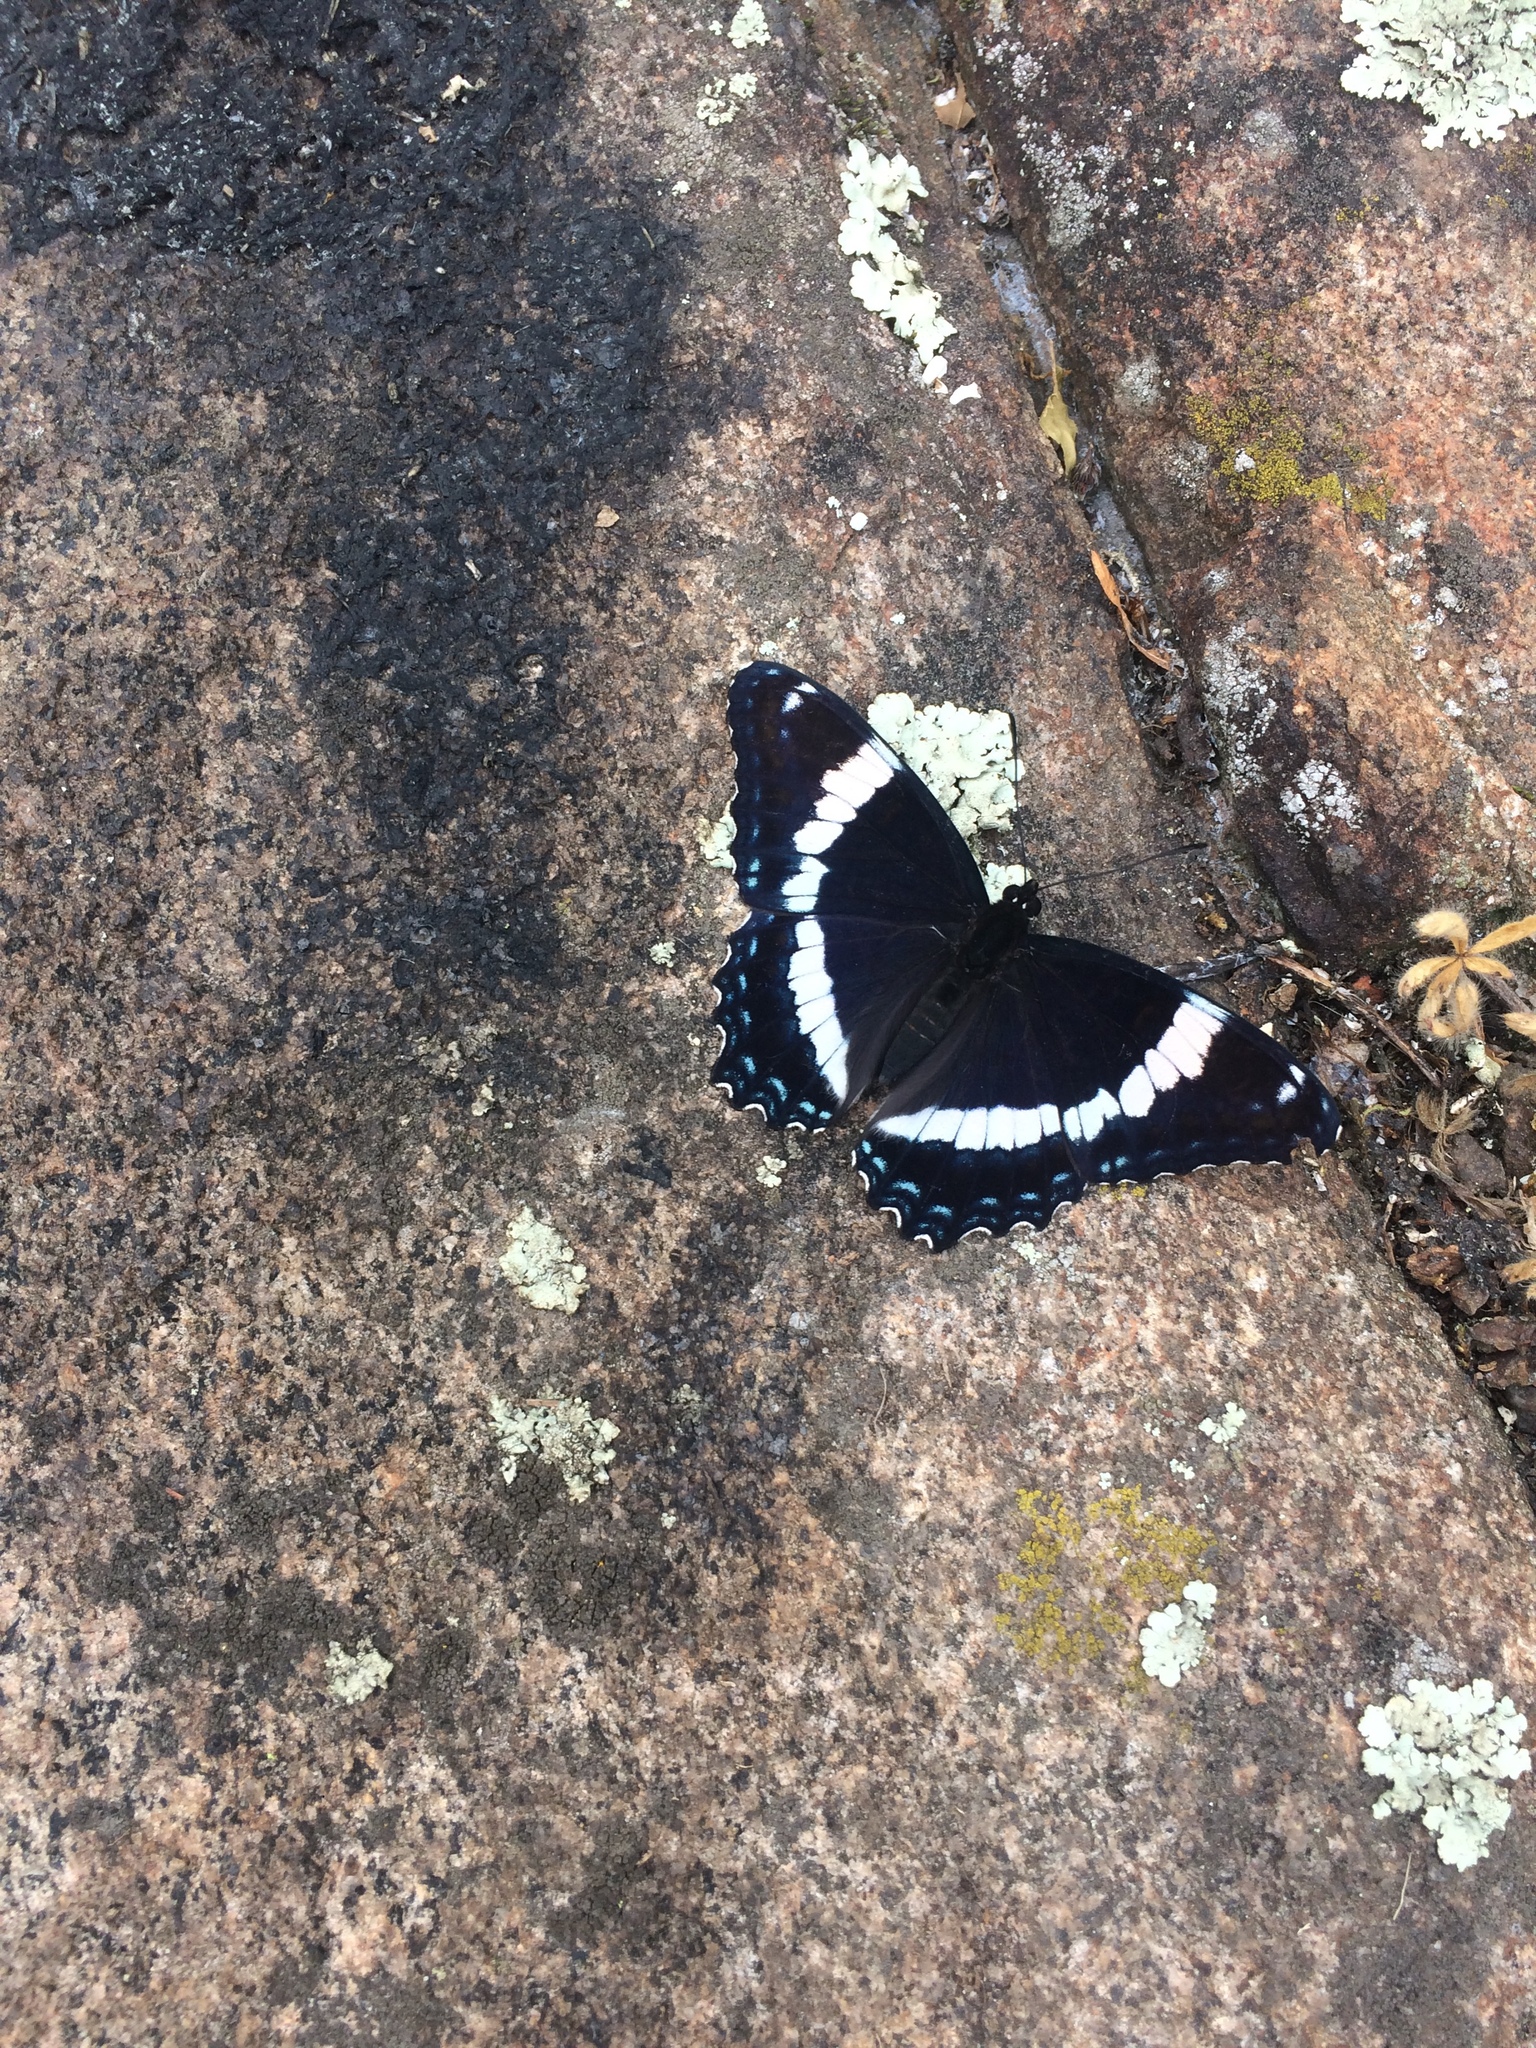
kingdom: Animalia
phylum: Arthropoda
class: Insecta
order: Lepidoptera
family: Nymphalidae
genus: Limenitis
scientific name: Limenitis arthemis
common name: Red-spotted admiral
